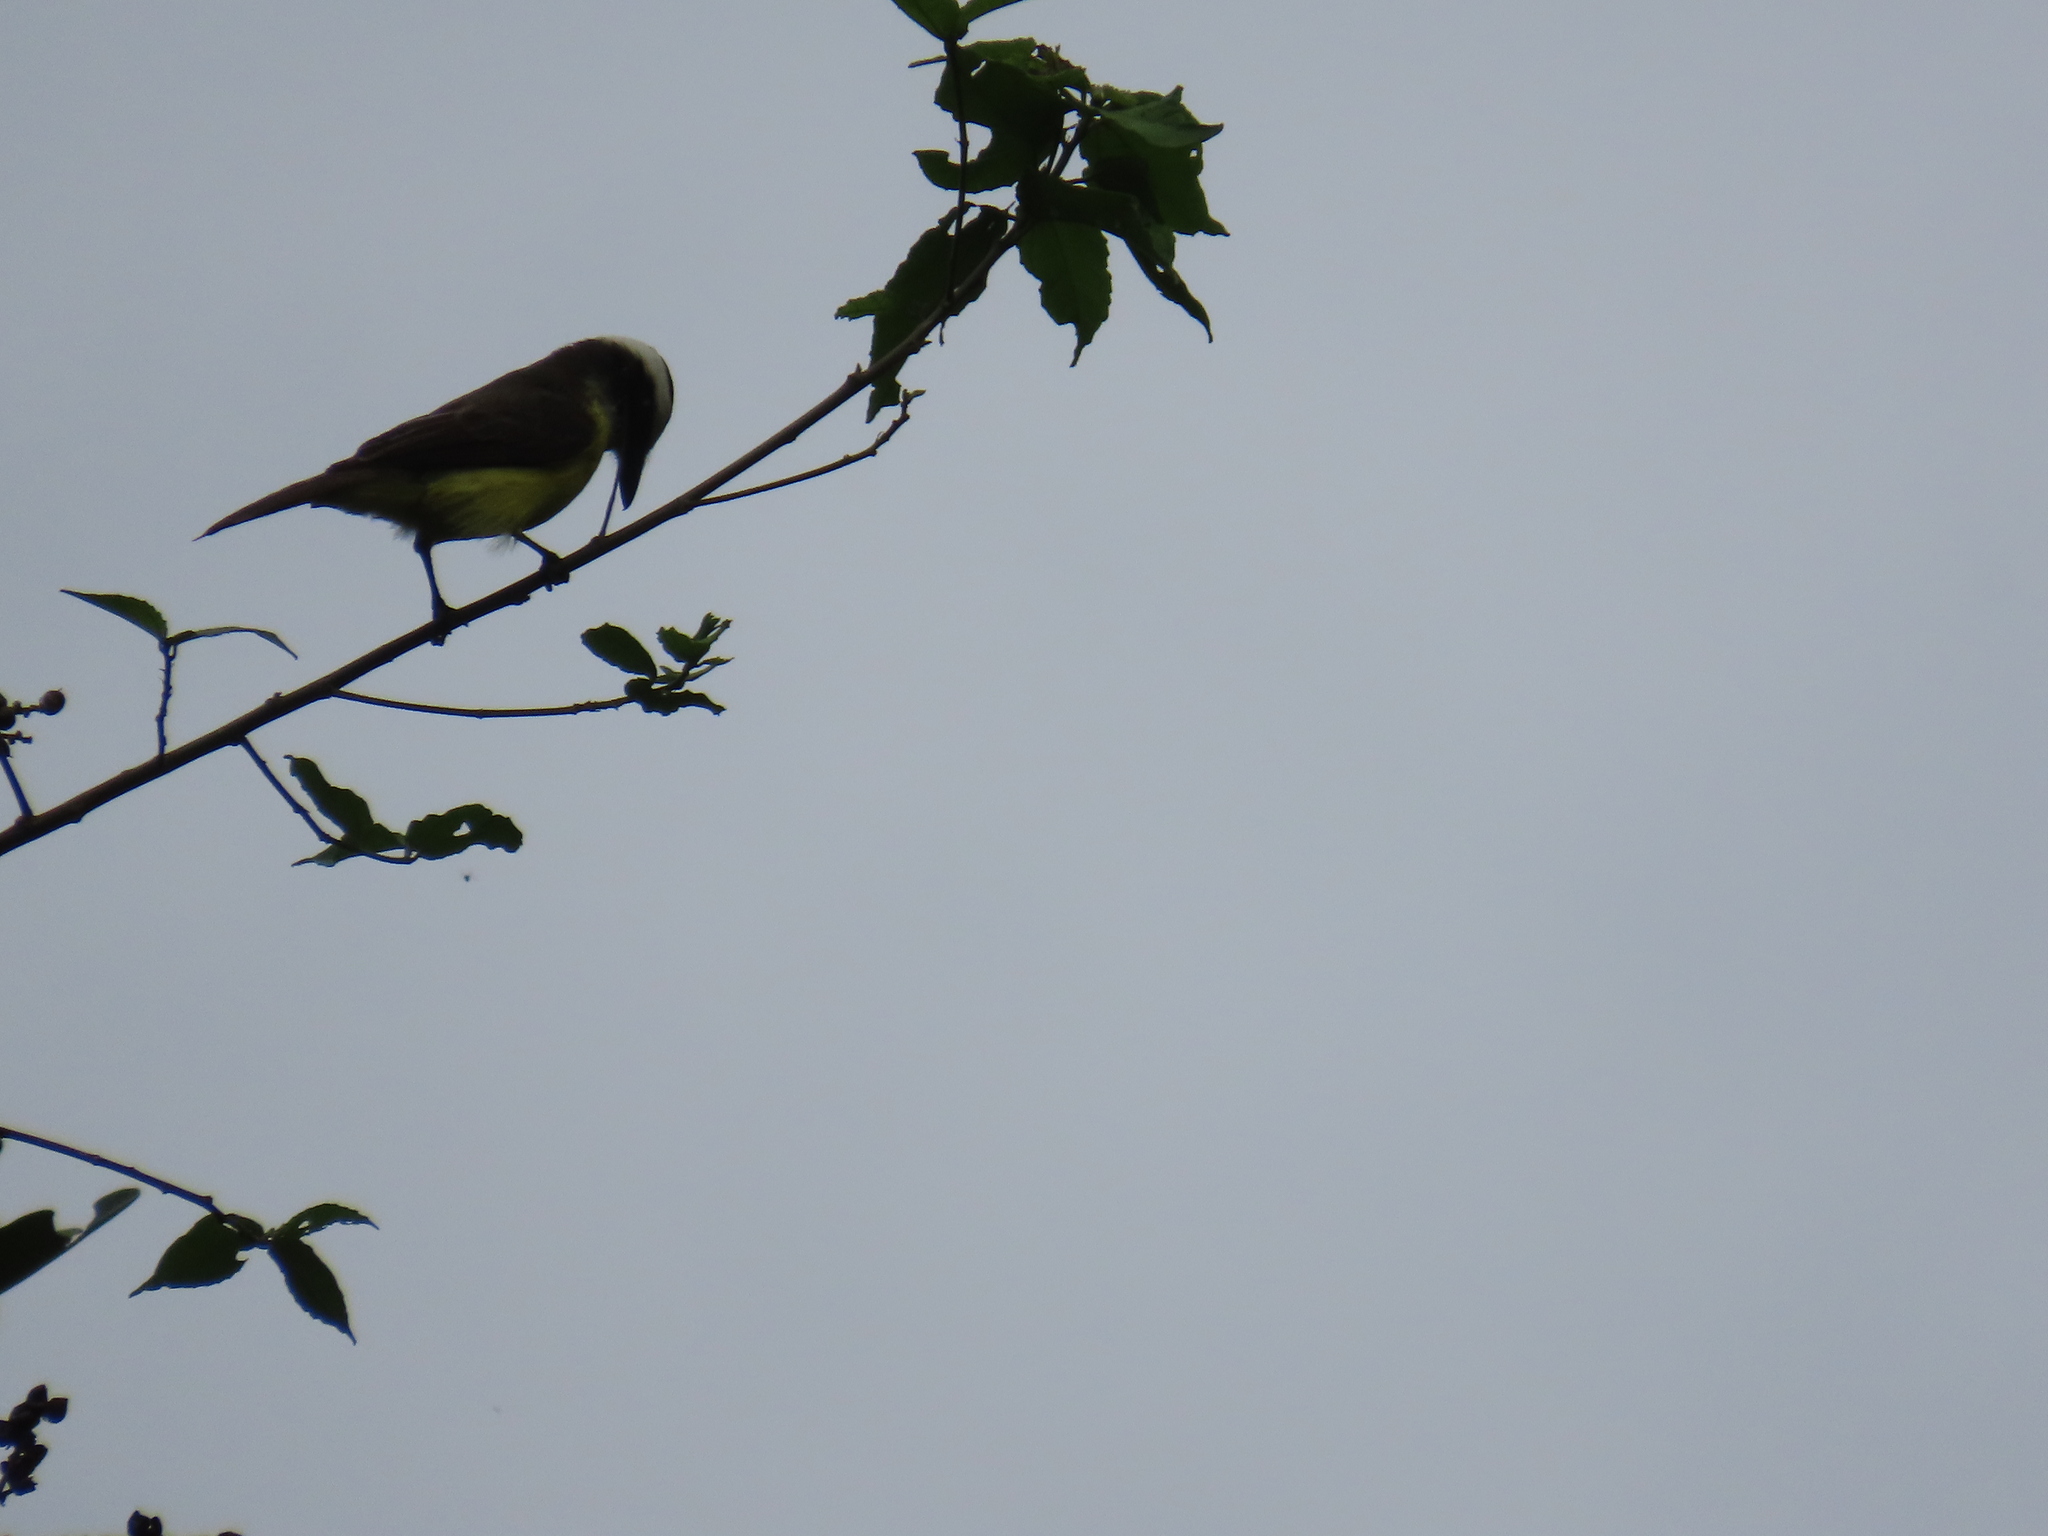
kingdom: Animalia
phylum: Chordata
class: Aves
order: Passeriformes
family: Tyrannidae
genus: Pitangus
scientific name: Pitangus sulphuratus
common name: Great kiskadee
